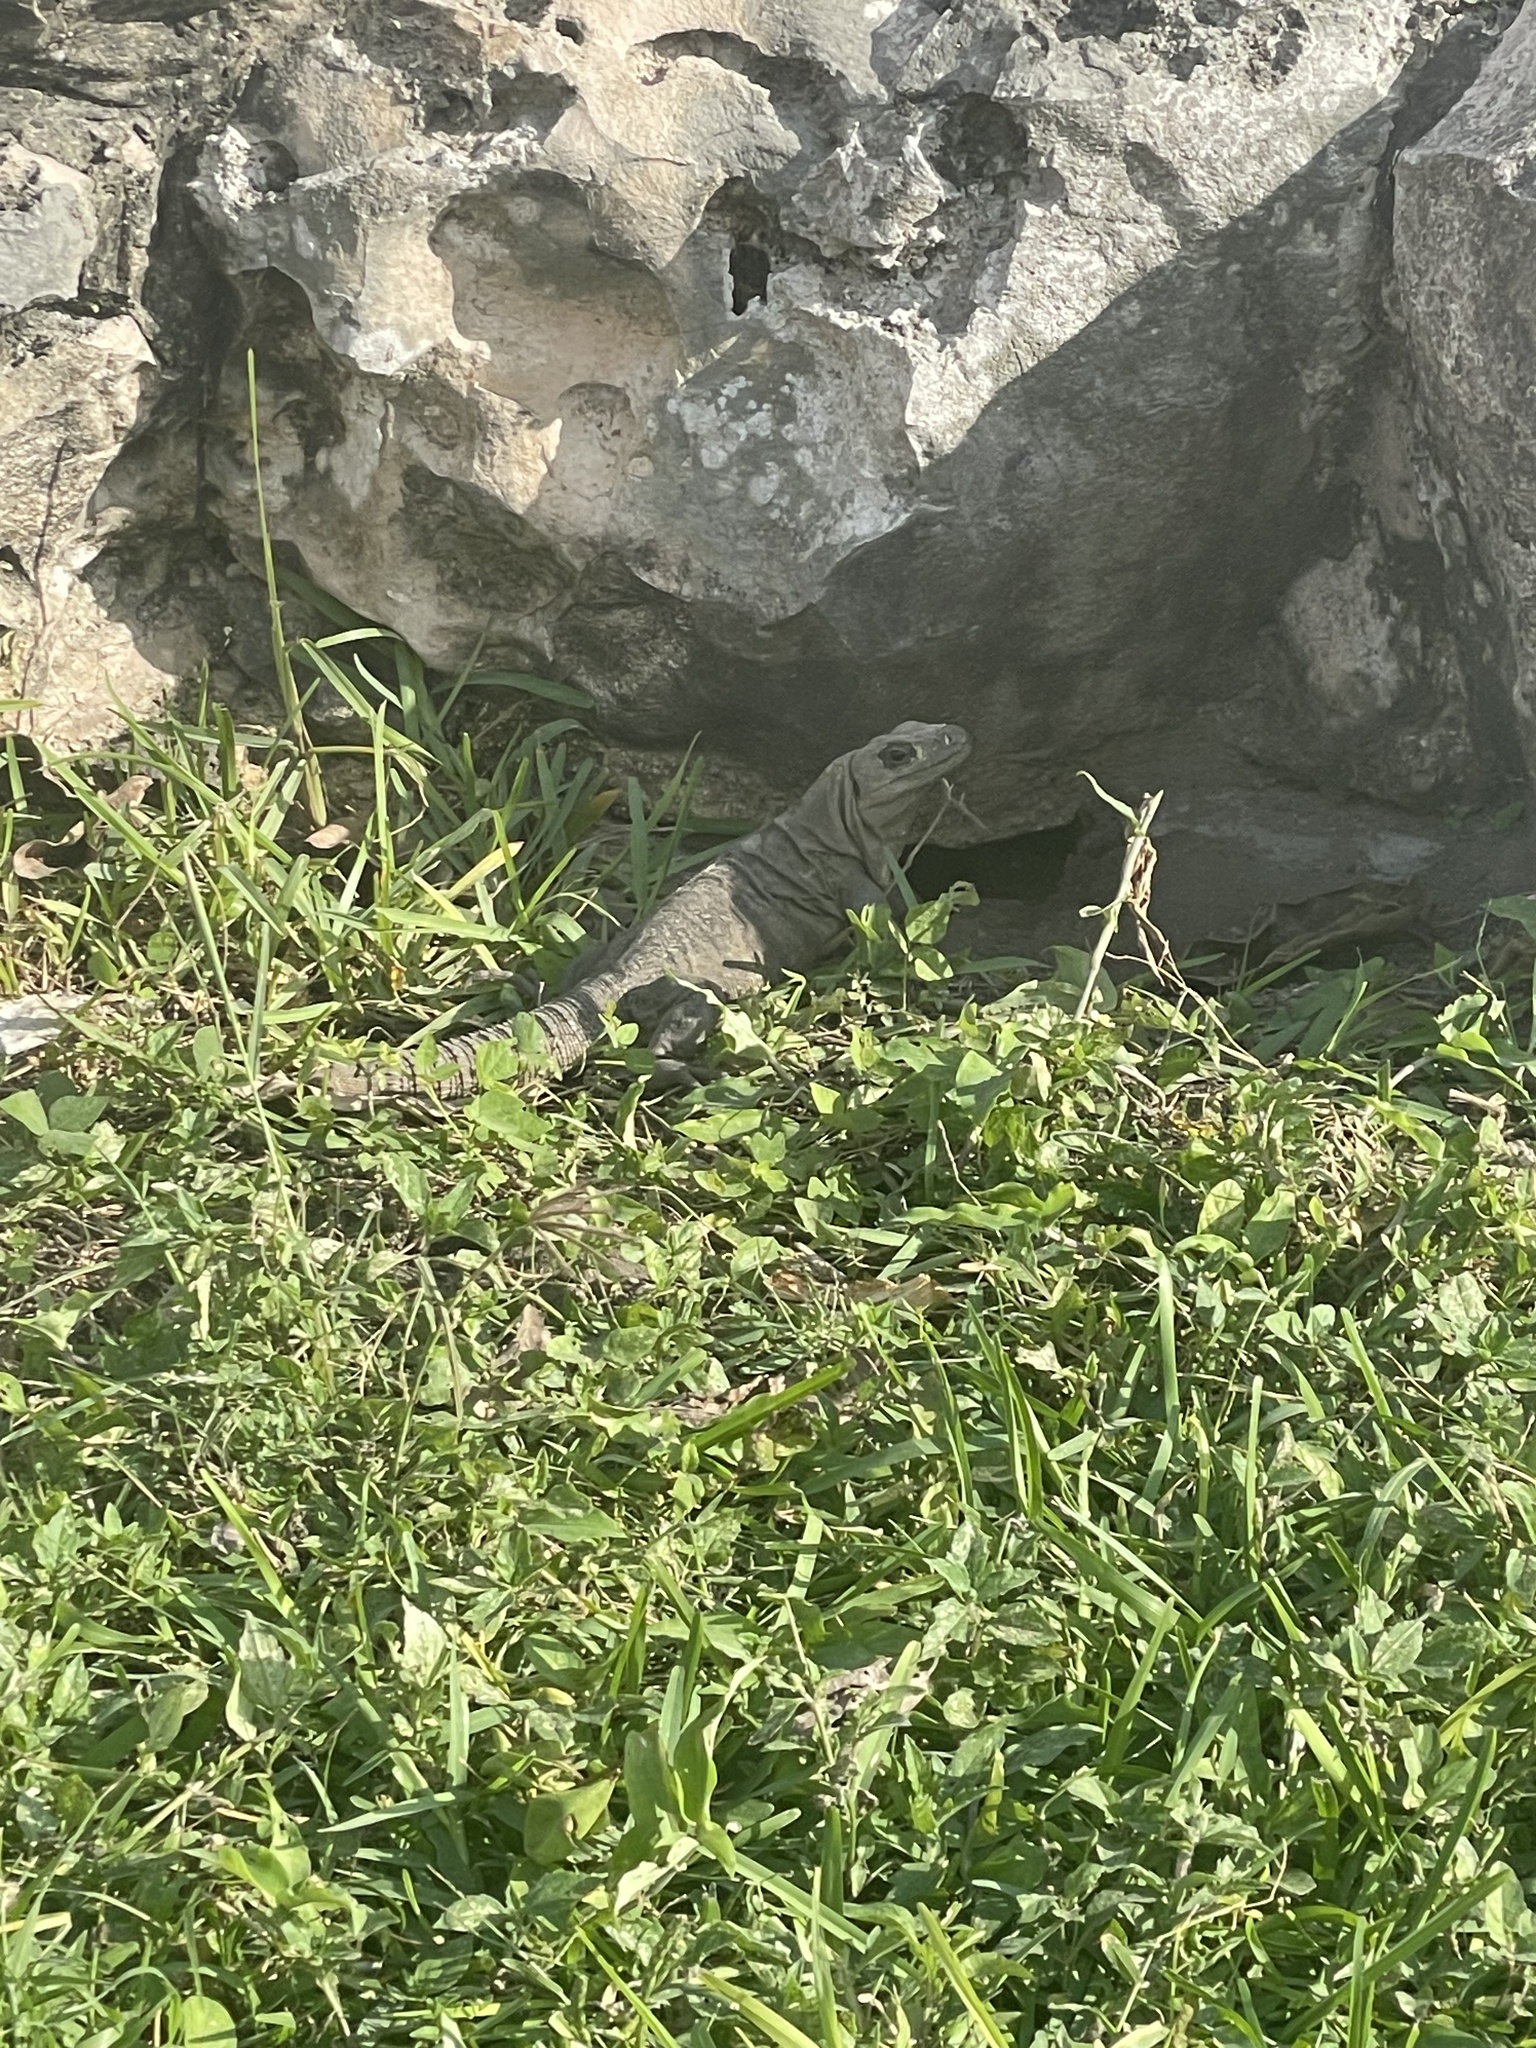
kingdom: Animalia
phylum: Chordata
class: Squamata
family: Iguanidae
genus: Ctenosaura
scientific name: Ctenosaura similis
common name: Black spiny-tailed iguana
